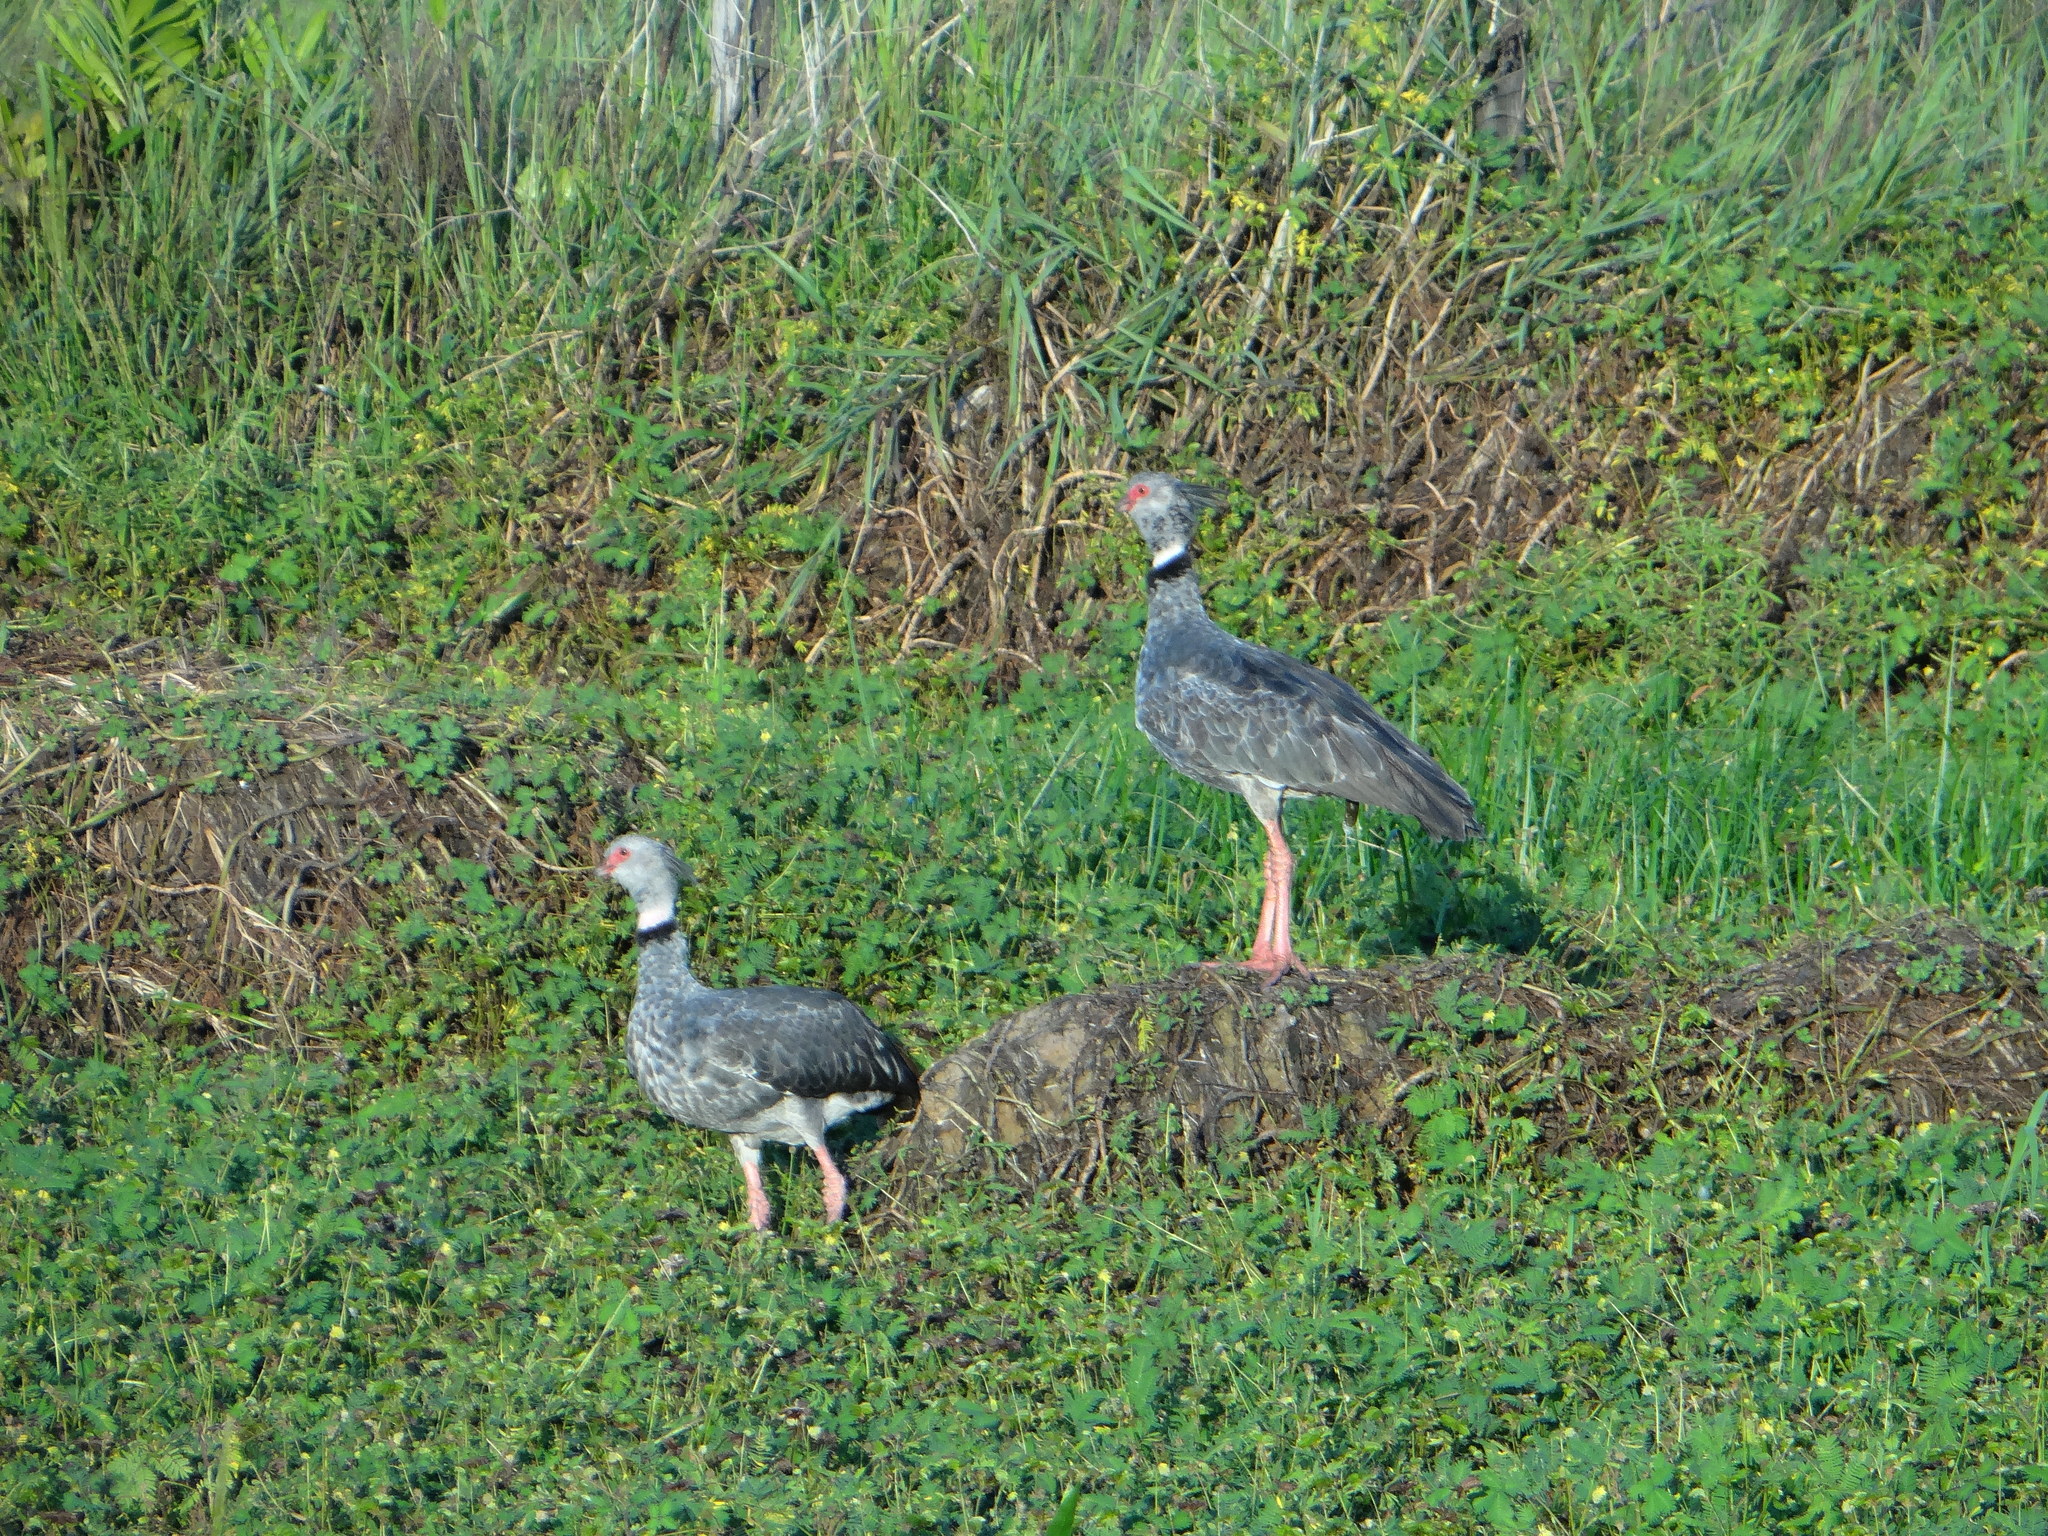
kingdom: Animalia
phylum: Chordata
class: Aves
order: Anseriformes
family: Anhimidae
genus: Chauna
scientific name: Chauna torquata
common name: Southern screamer
